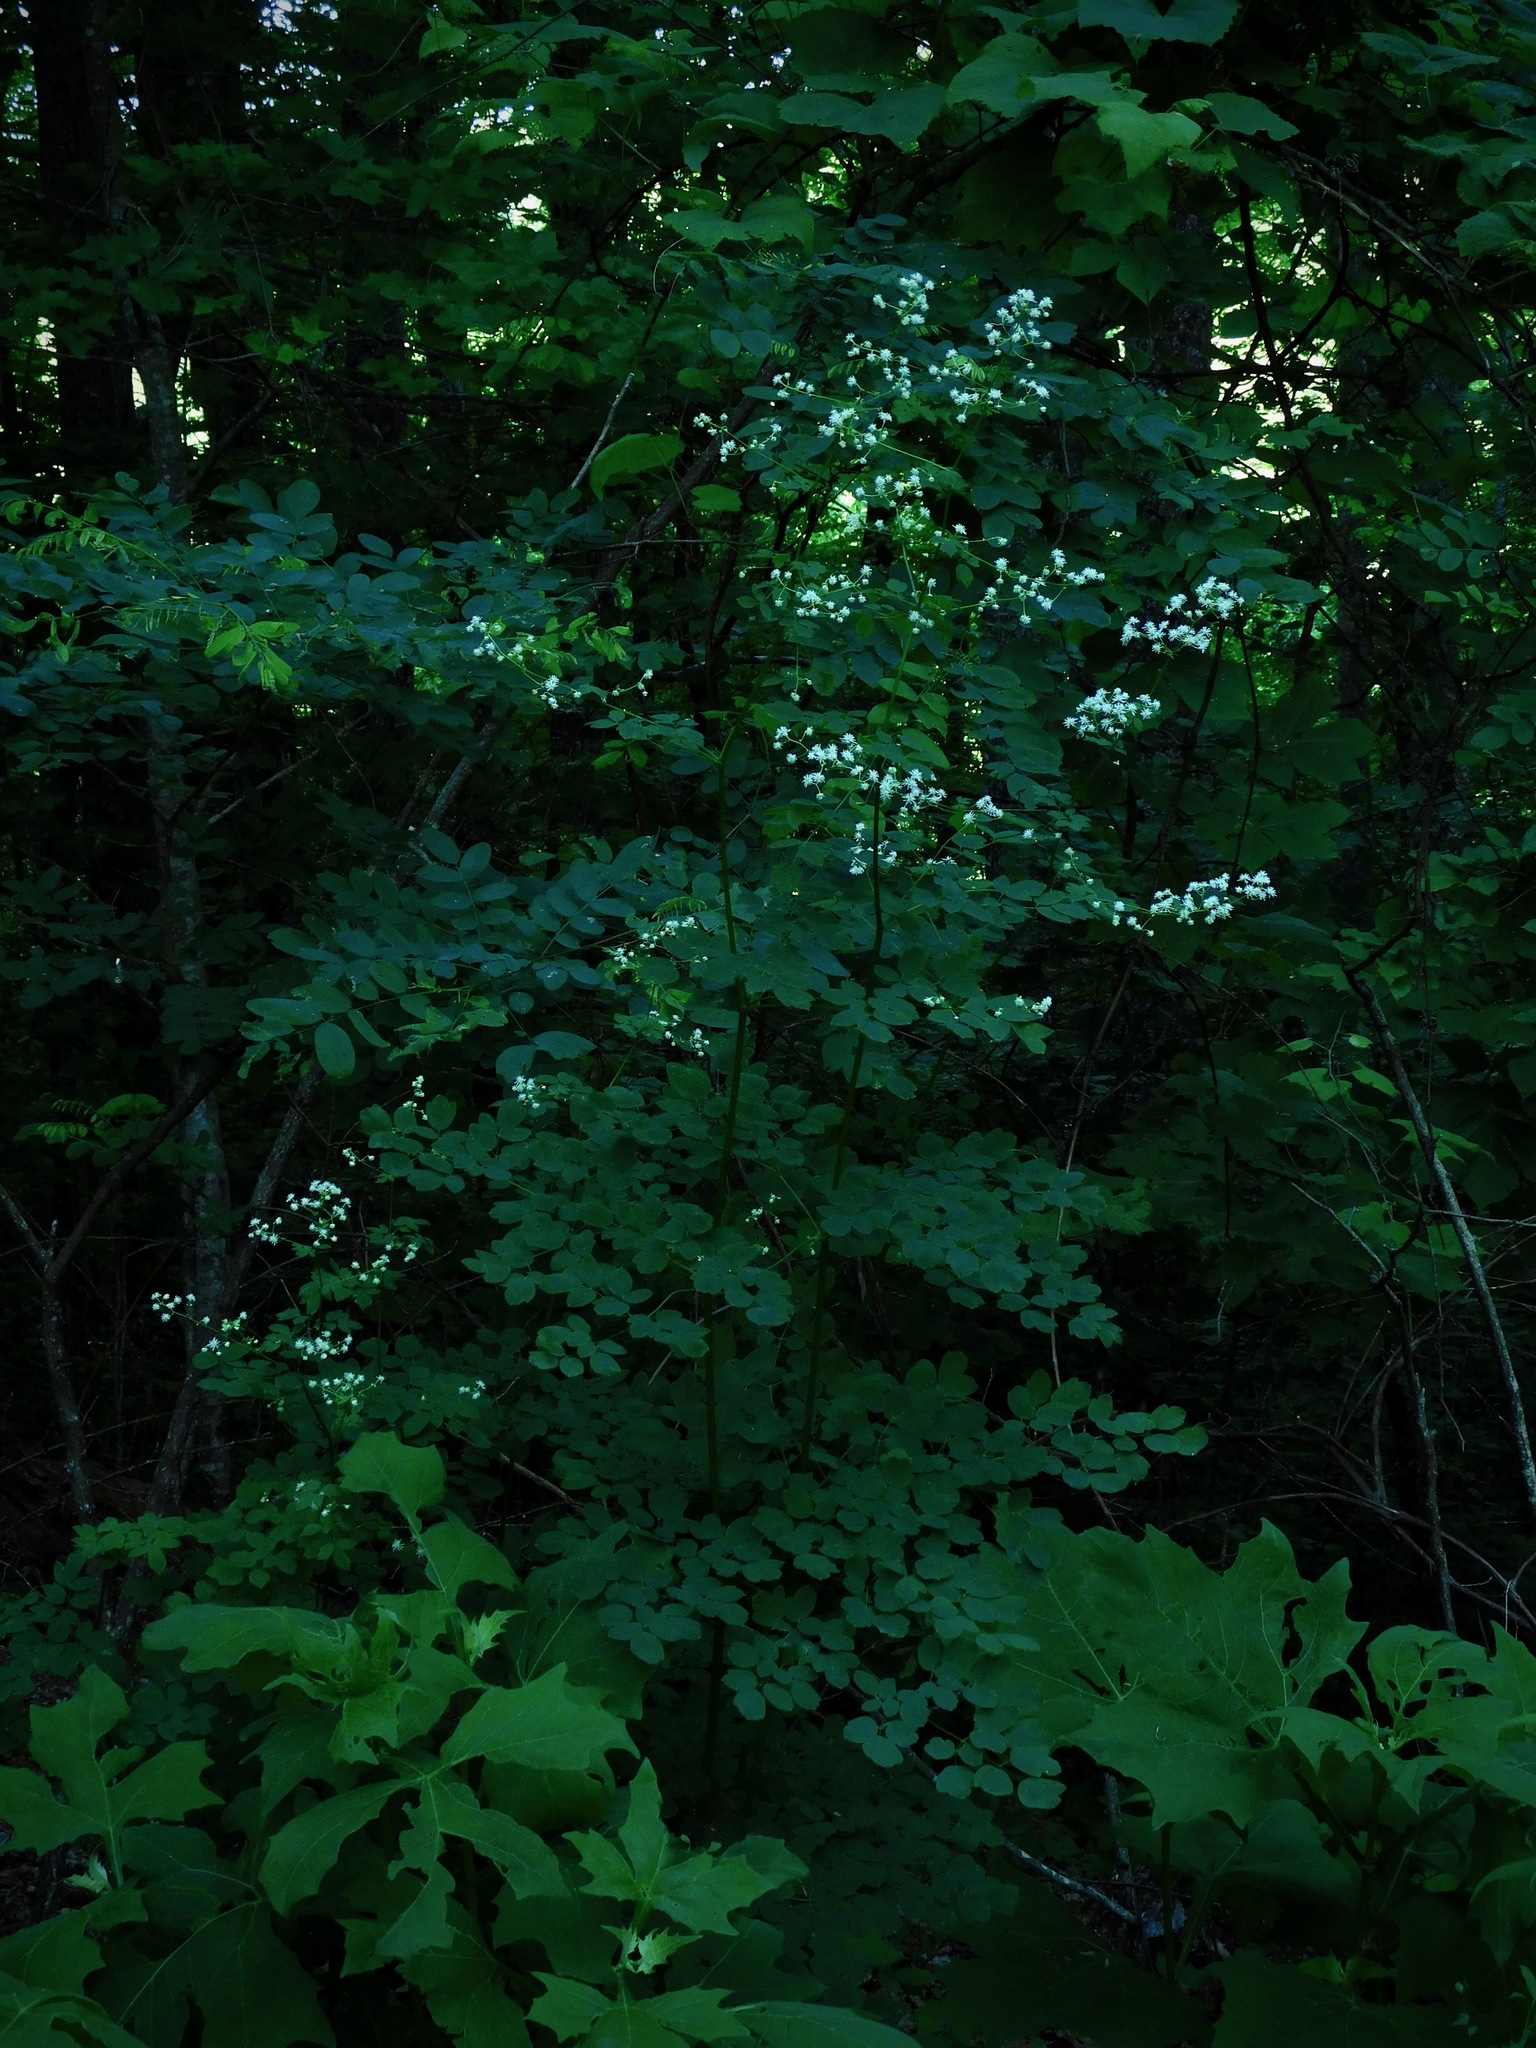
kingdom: Plantae
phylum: Tracheophyta
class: Magnoliopsida
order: Ranunculales
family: Ranunculaceae
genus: Thalictrum
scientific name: Thalictrum revolutum
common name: Waxy meadow-rue
